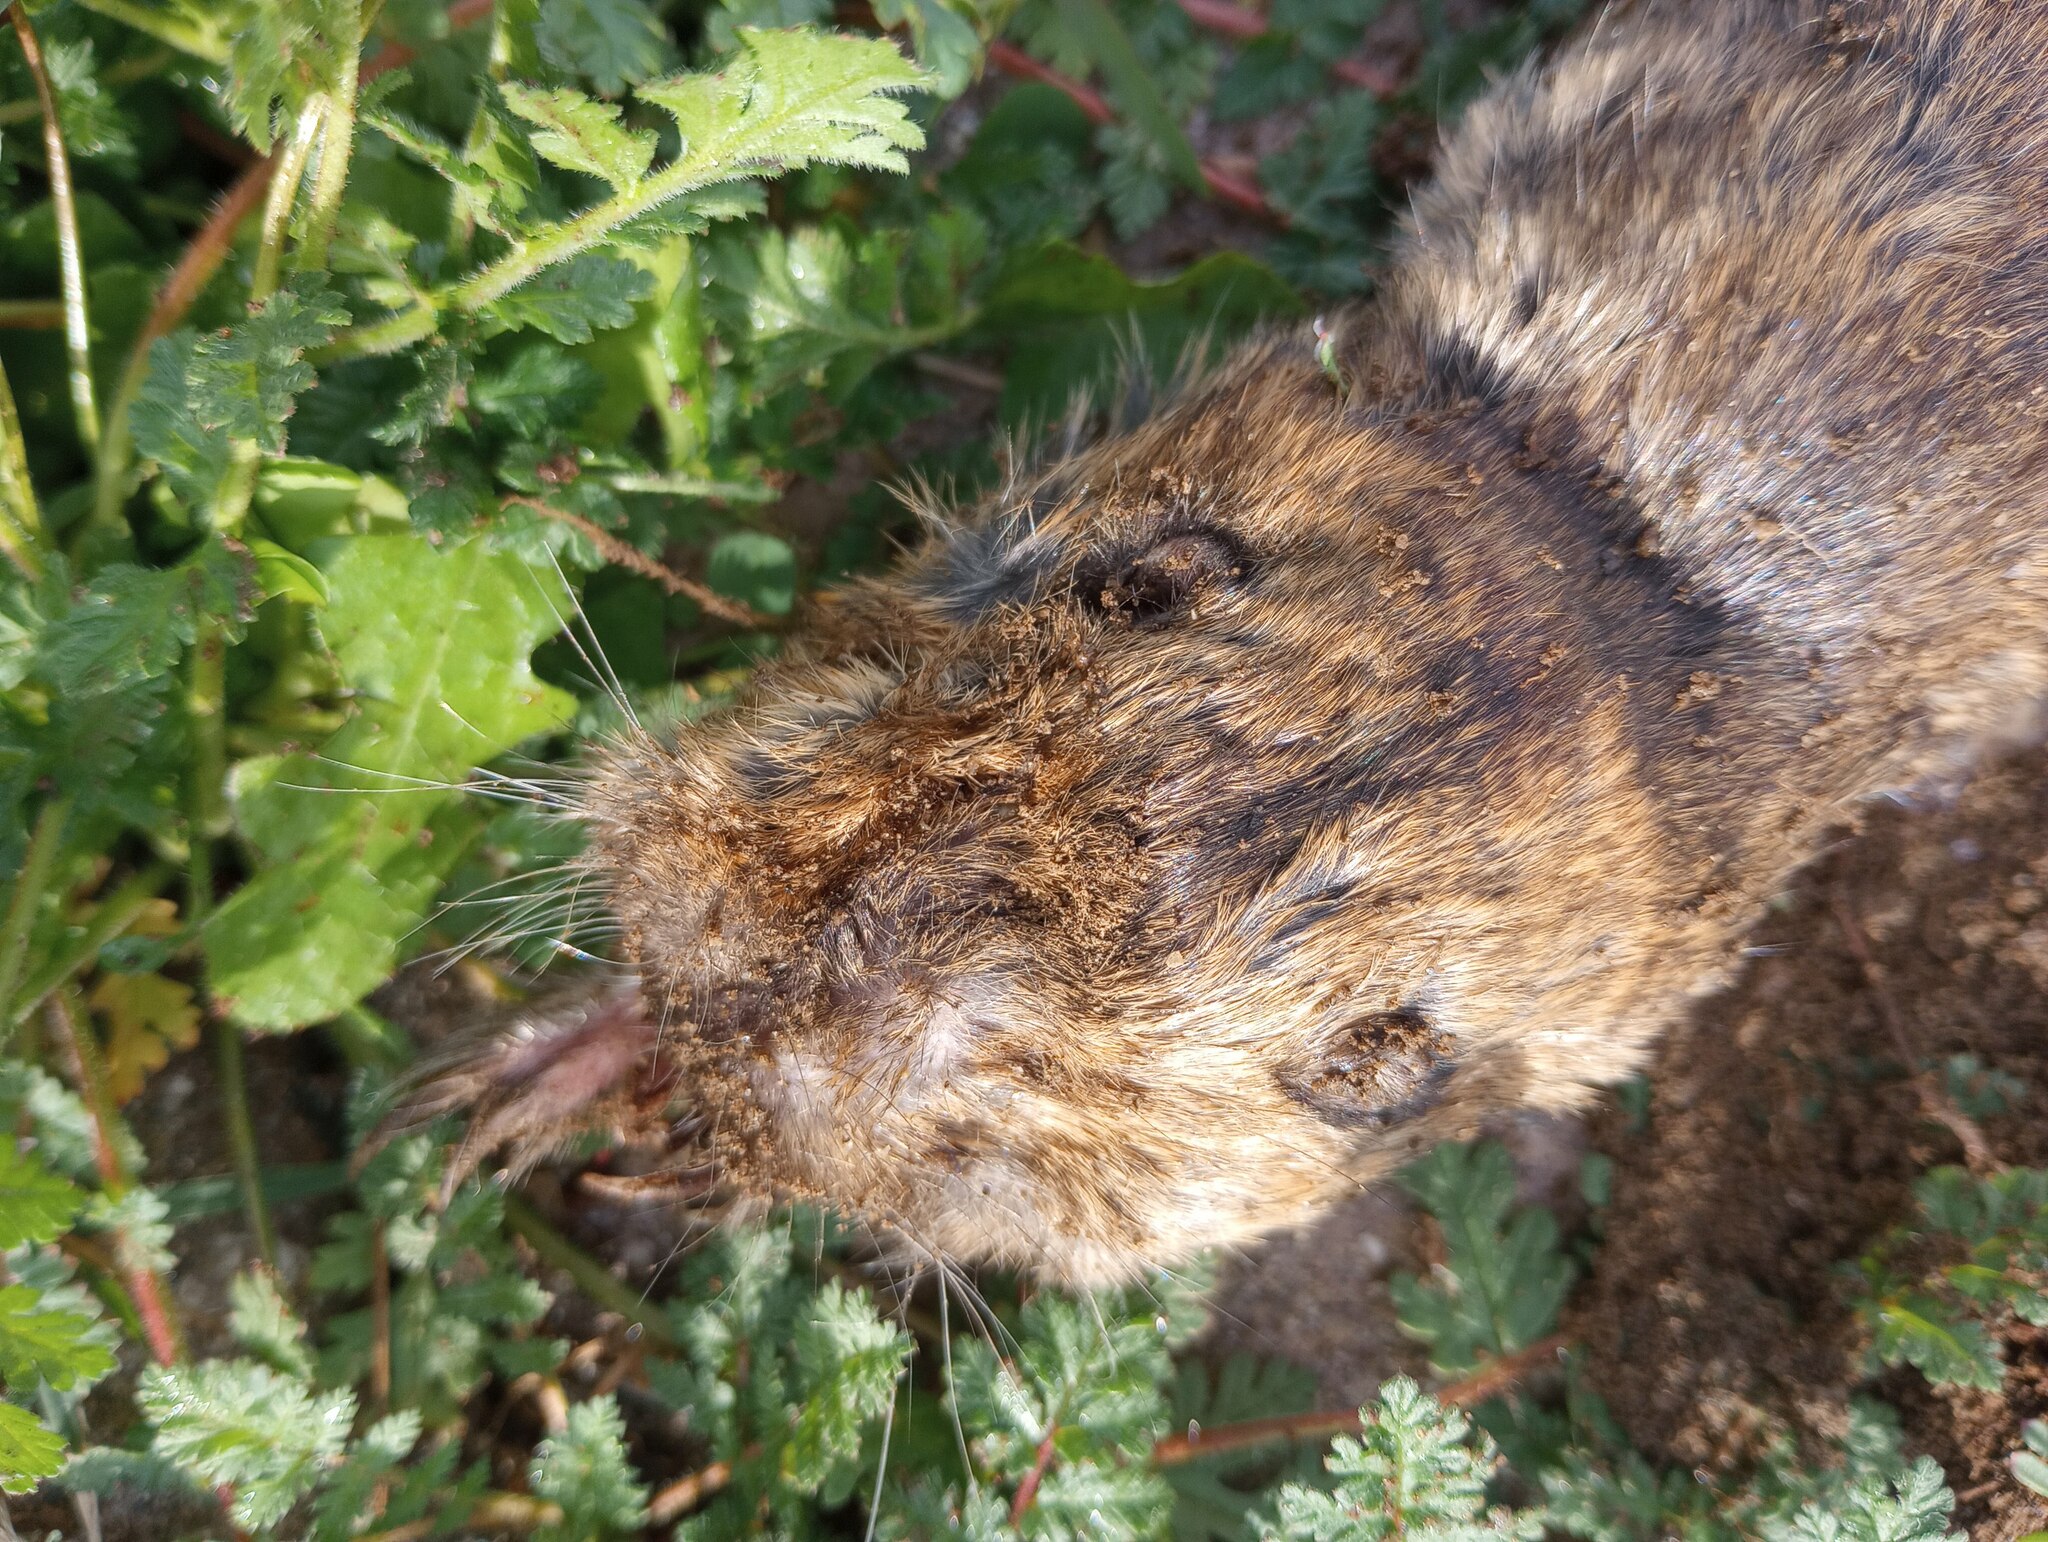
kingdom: Animalia
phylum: Chordata
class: Mammalia
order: Rodentia
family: Geomyidae
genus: Thomomys
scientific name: Thomomys bottae
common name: Botta's pocket gopher
